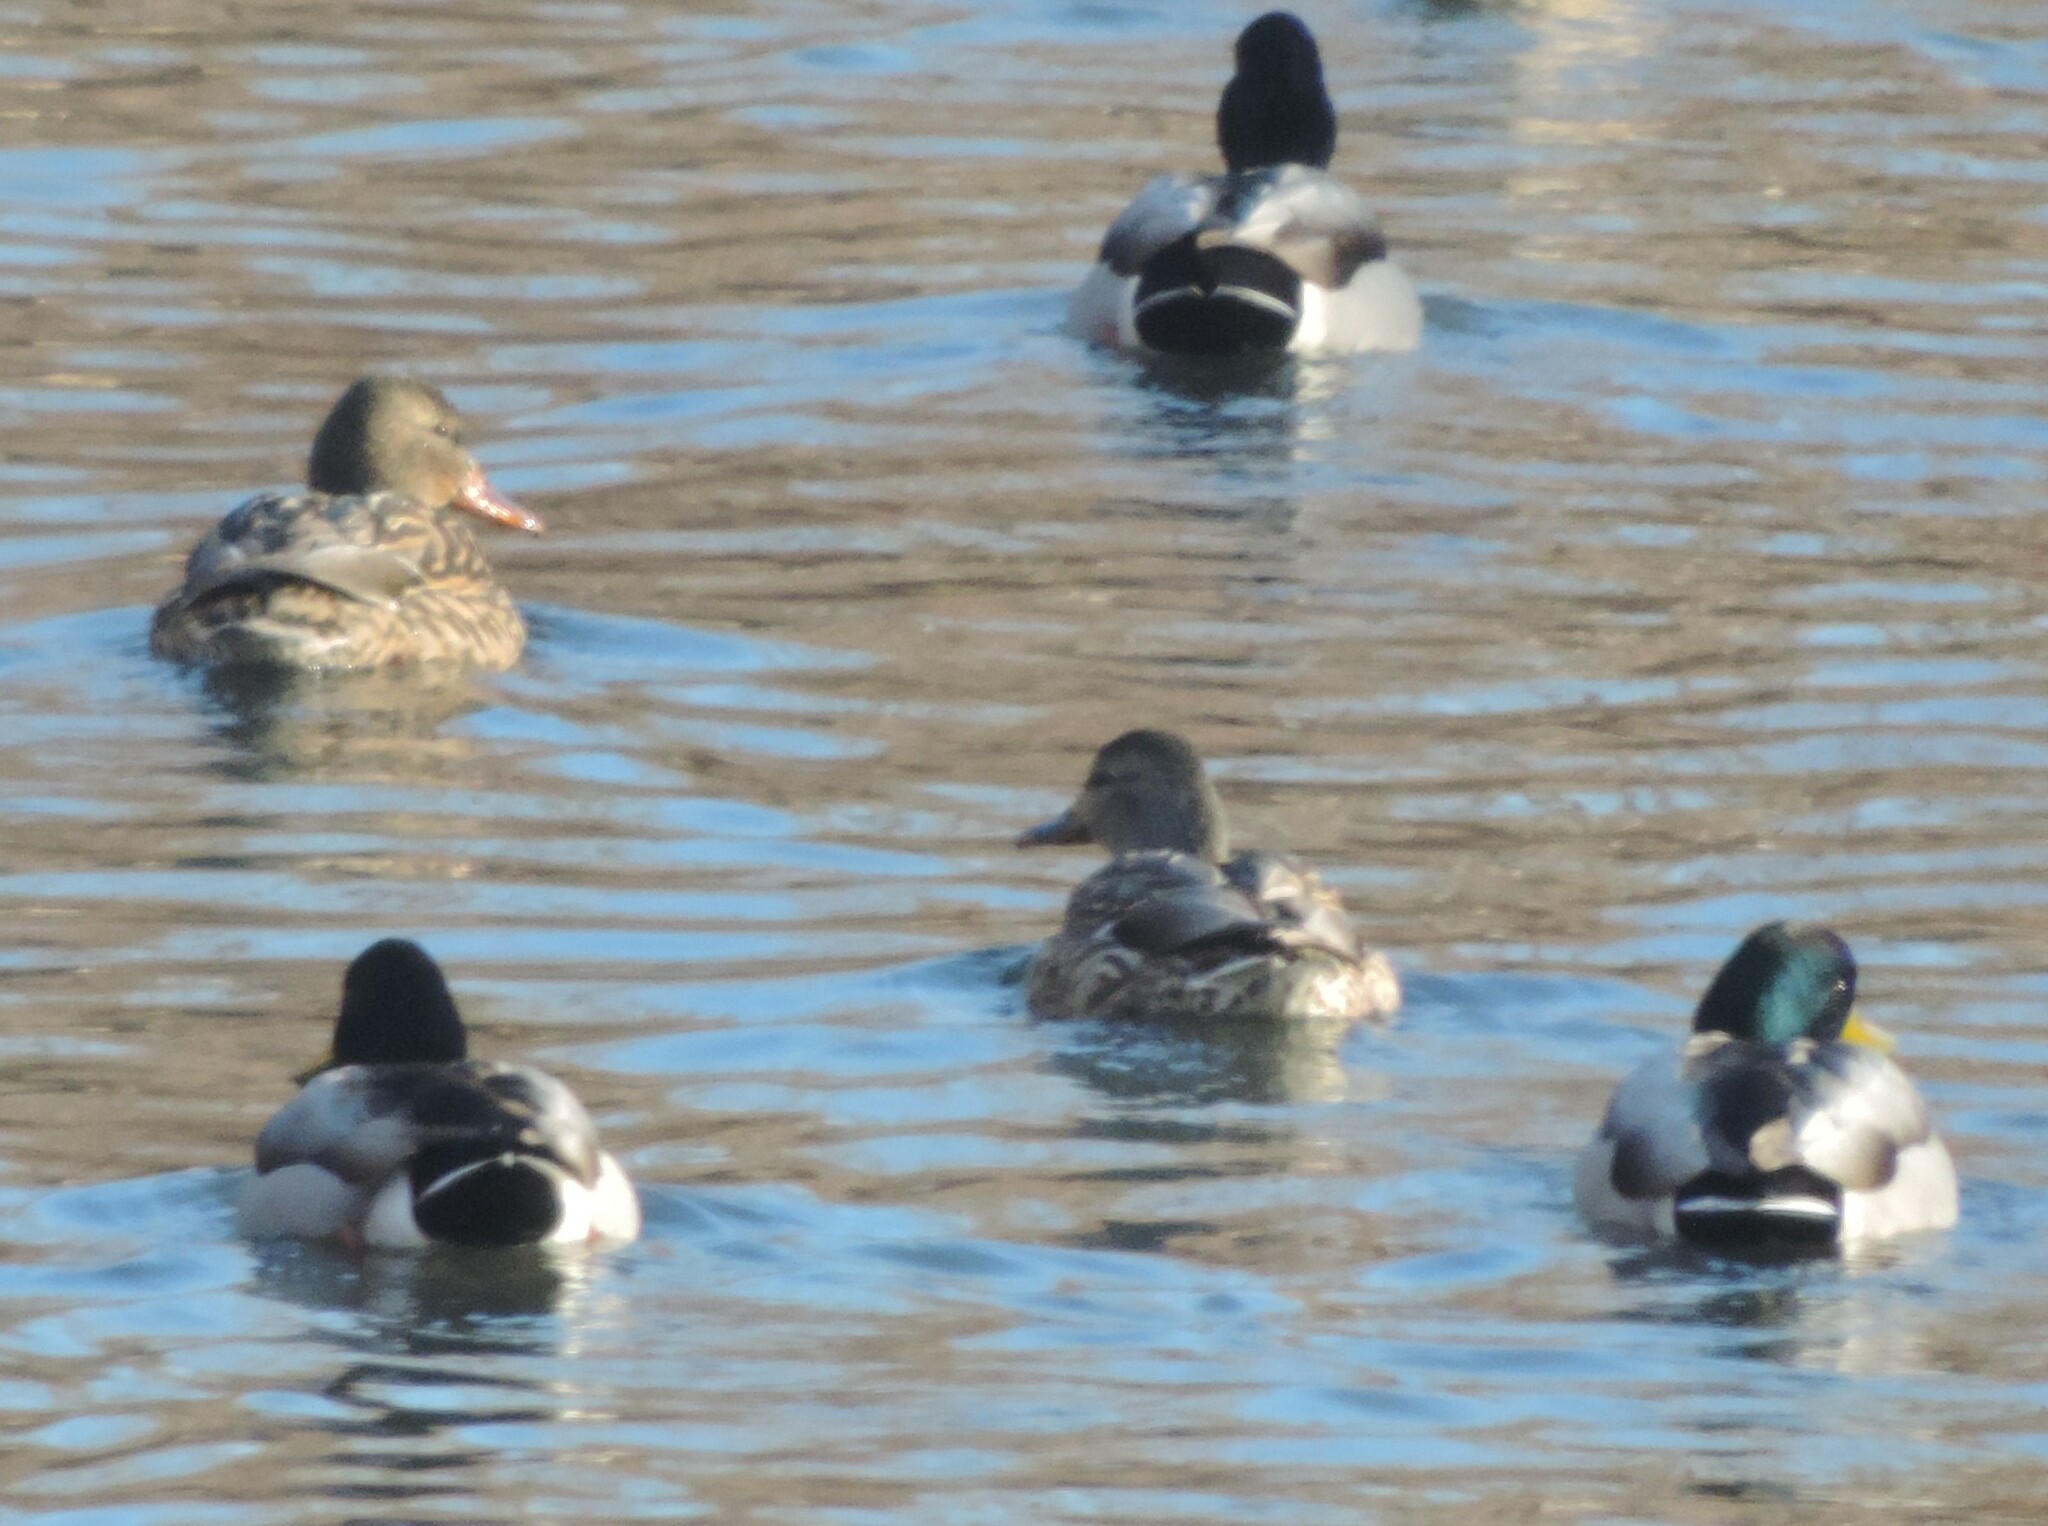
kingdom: Animalia
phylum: Chordata
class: Aves
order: Anseriformes
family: Anatidae
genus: Anas
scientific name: Anas platyrhynchos
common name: Mallard
